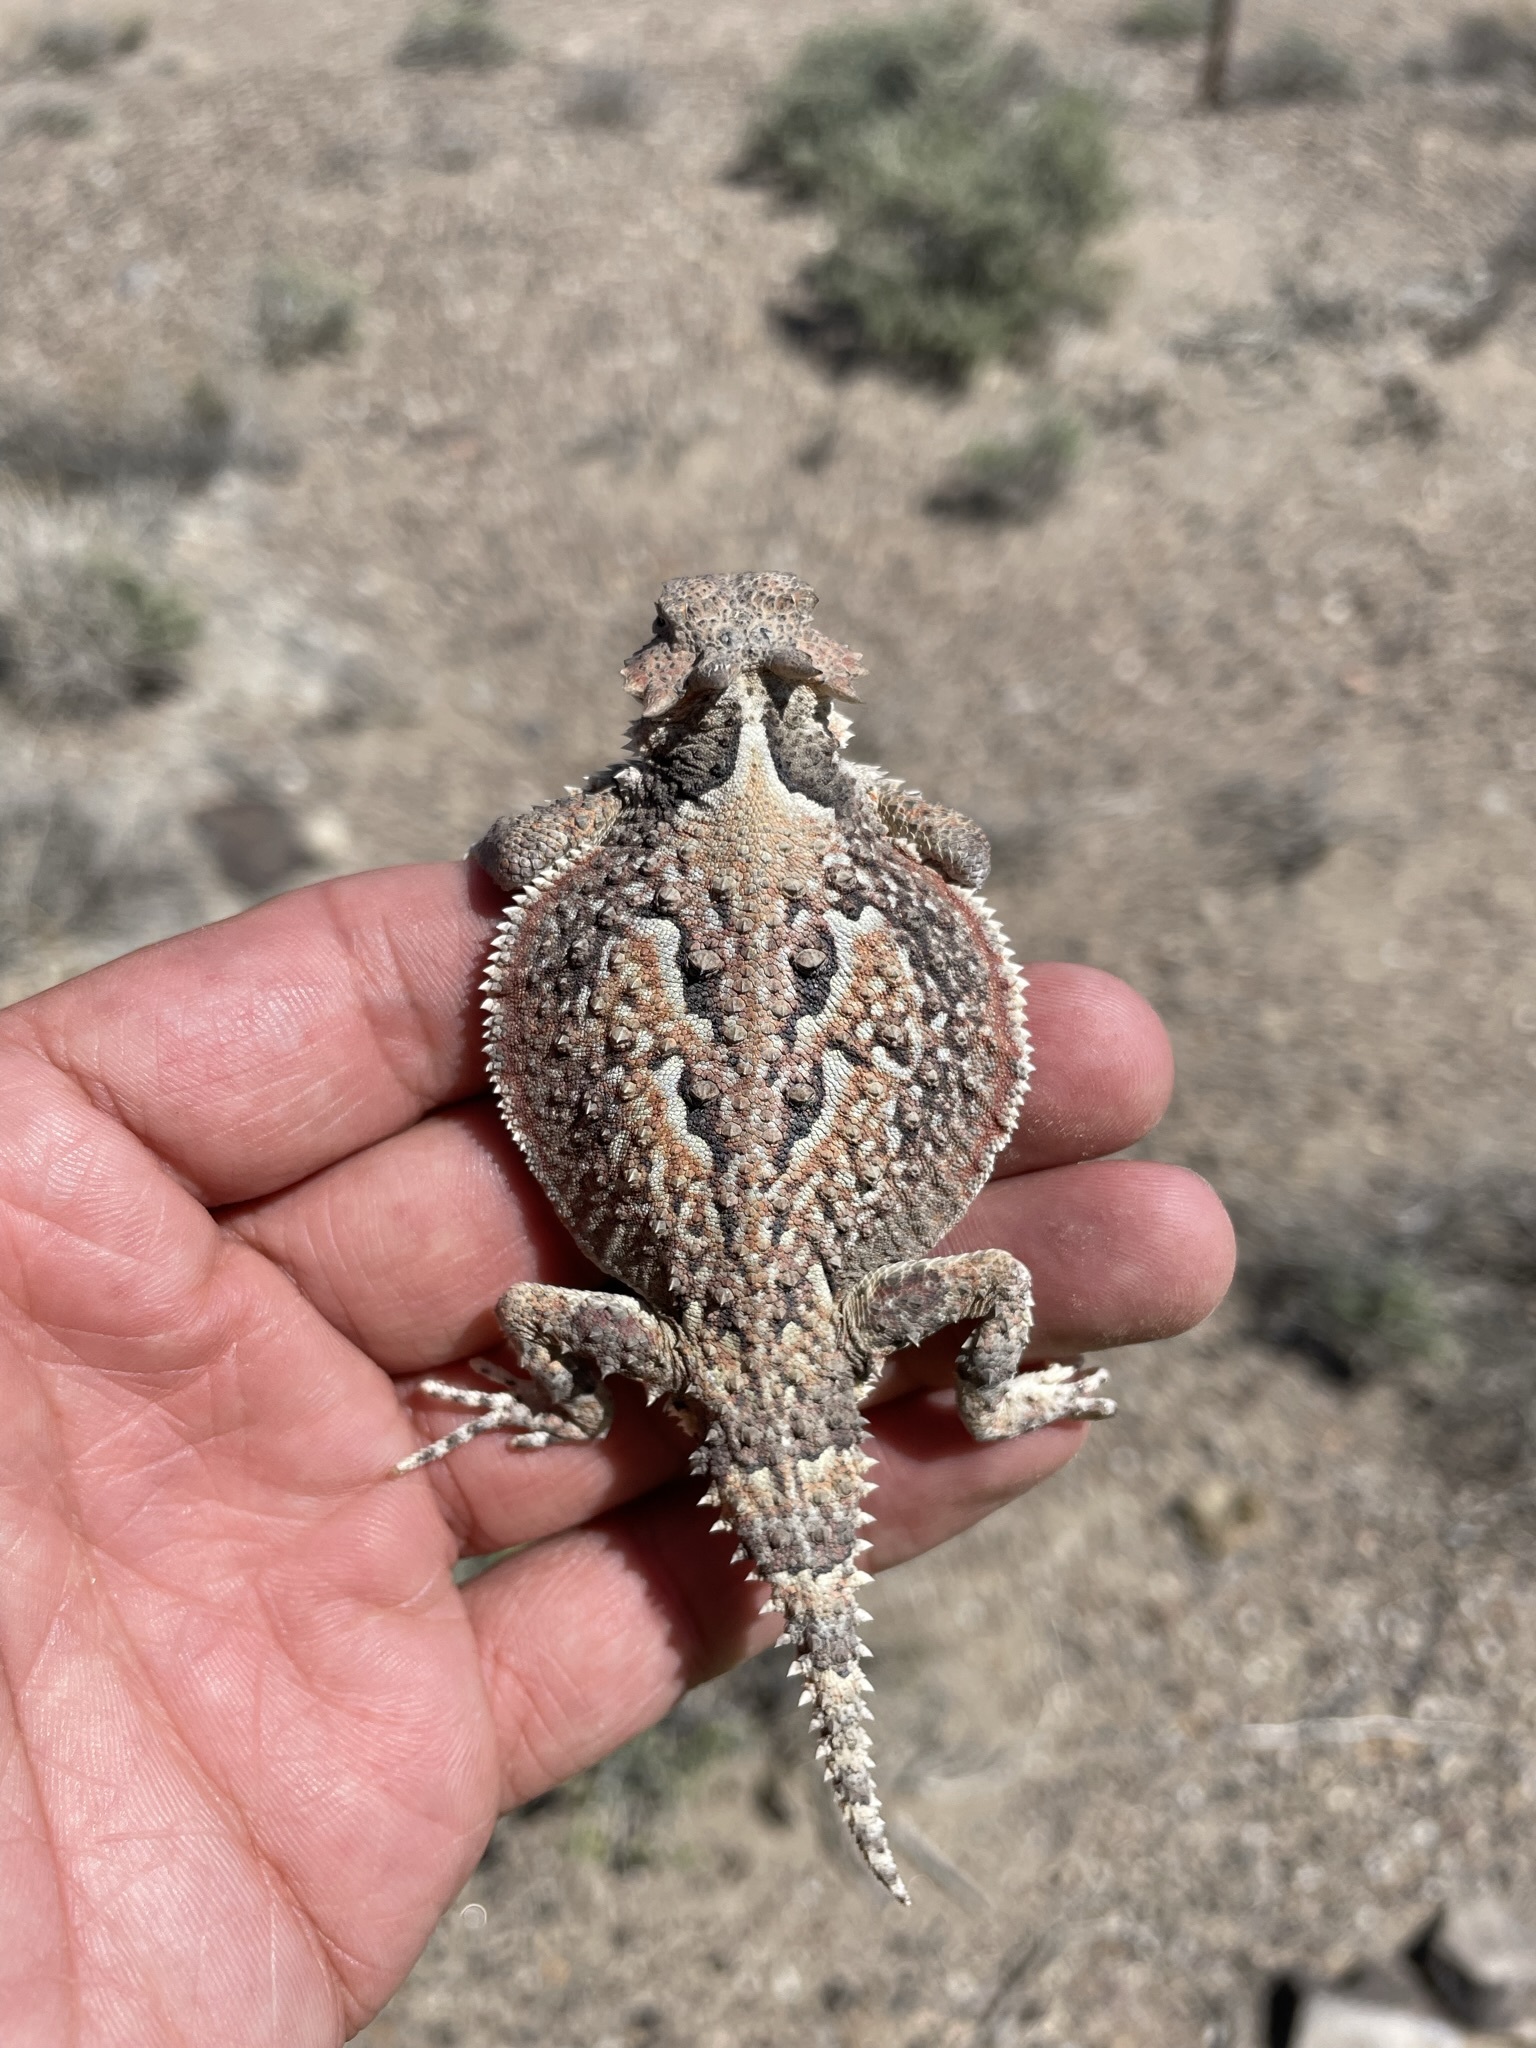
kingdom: Animalia
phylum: Chordata
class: Squamata
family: Phrynosomatidae
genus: Phrynosoma
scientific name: Phrynosoma platyrhinos
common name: Desert horned lizard
